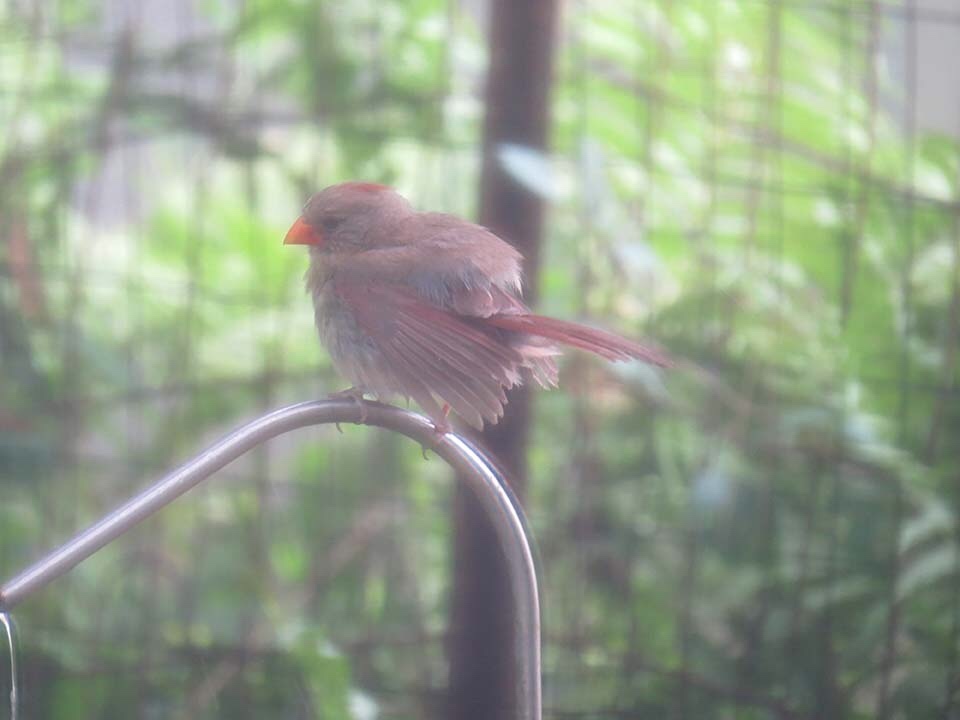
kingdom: Animalia
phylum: Chordata
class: Aves
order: Passeriformes
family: Cardinalidae
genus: Cardinalis
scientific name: Cardinalis cardinalis
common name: Northern cardinal
